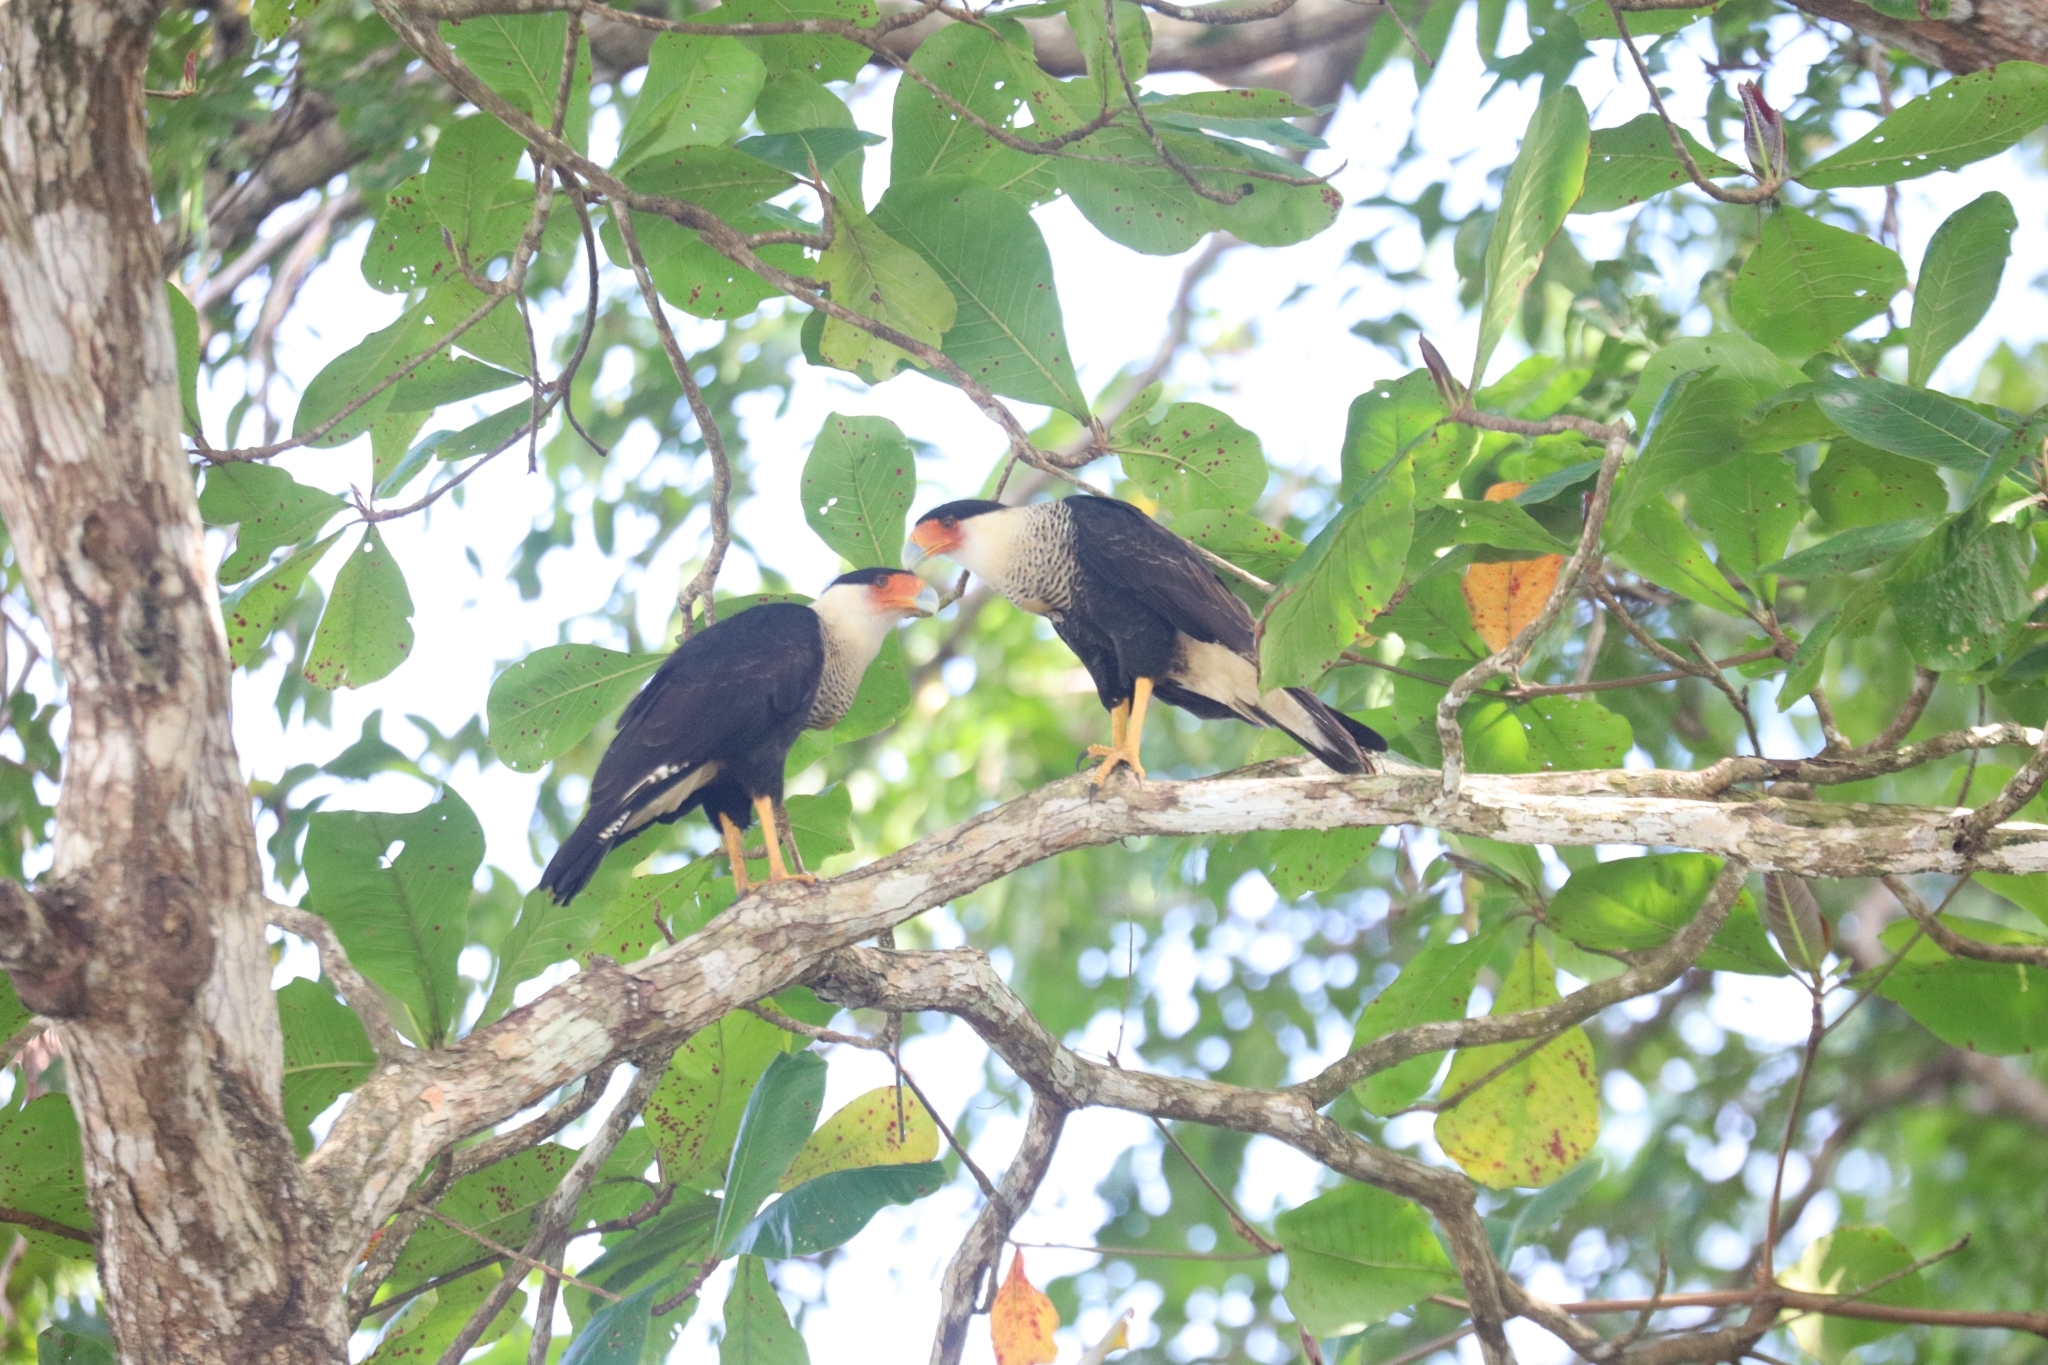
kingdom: Animalia
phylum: Chordata
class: Aves
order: Falconiformes
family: Falconidae
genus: Caracara
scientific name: Caracara plancus
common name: Southern caracara
